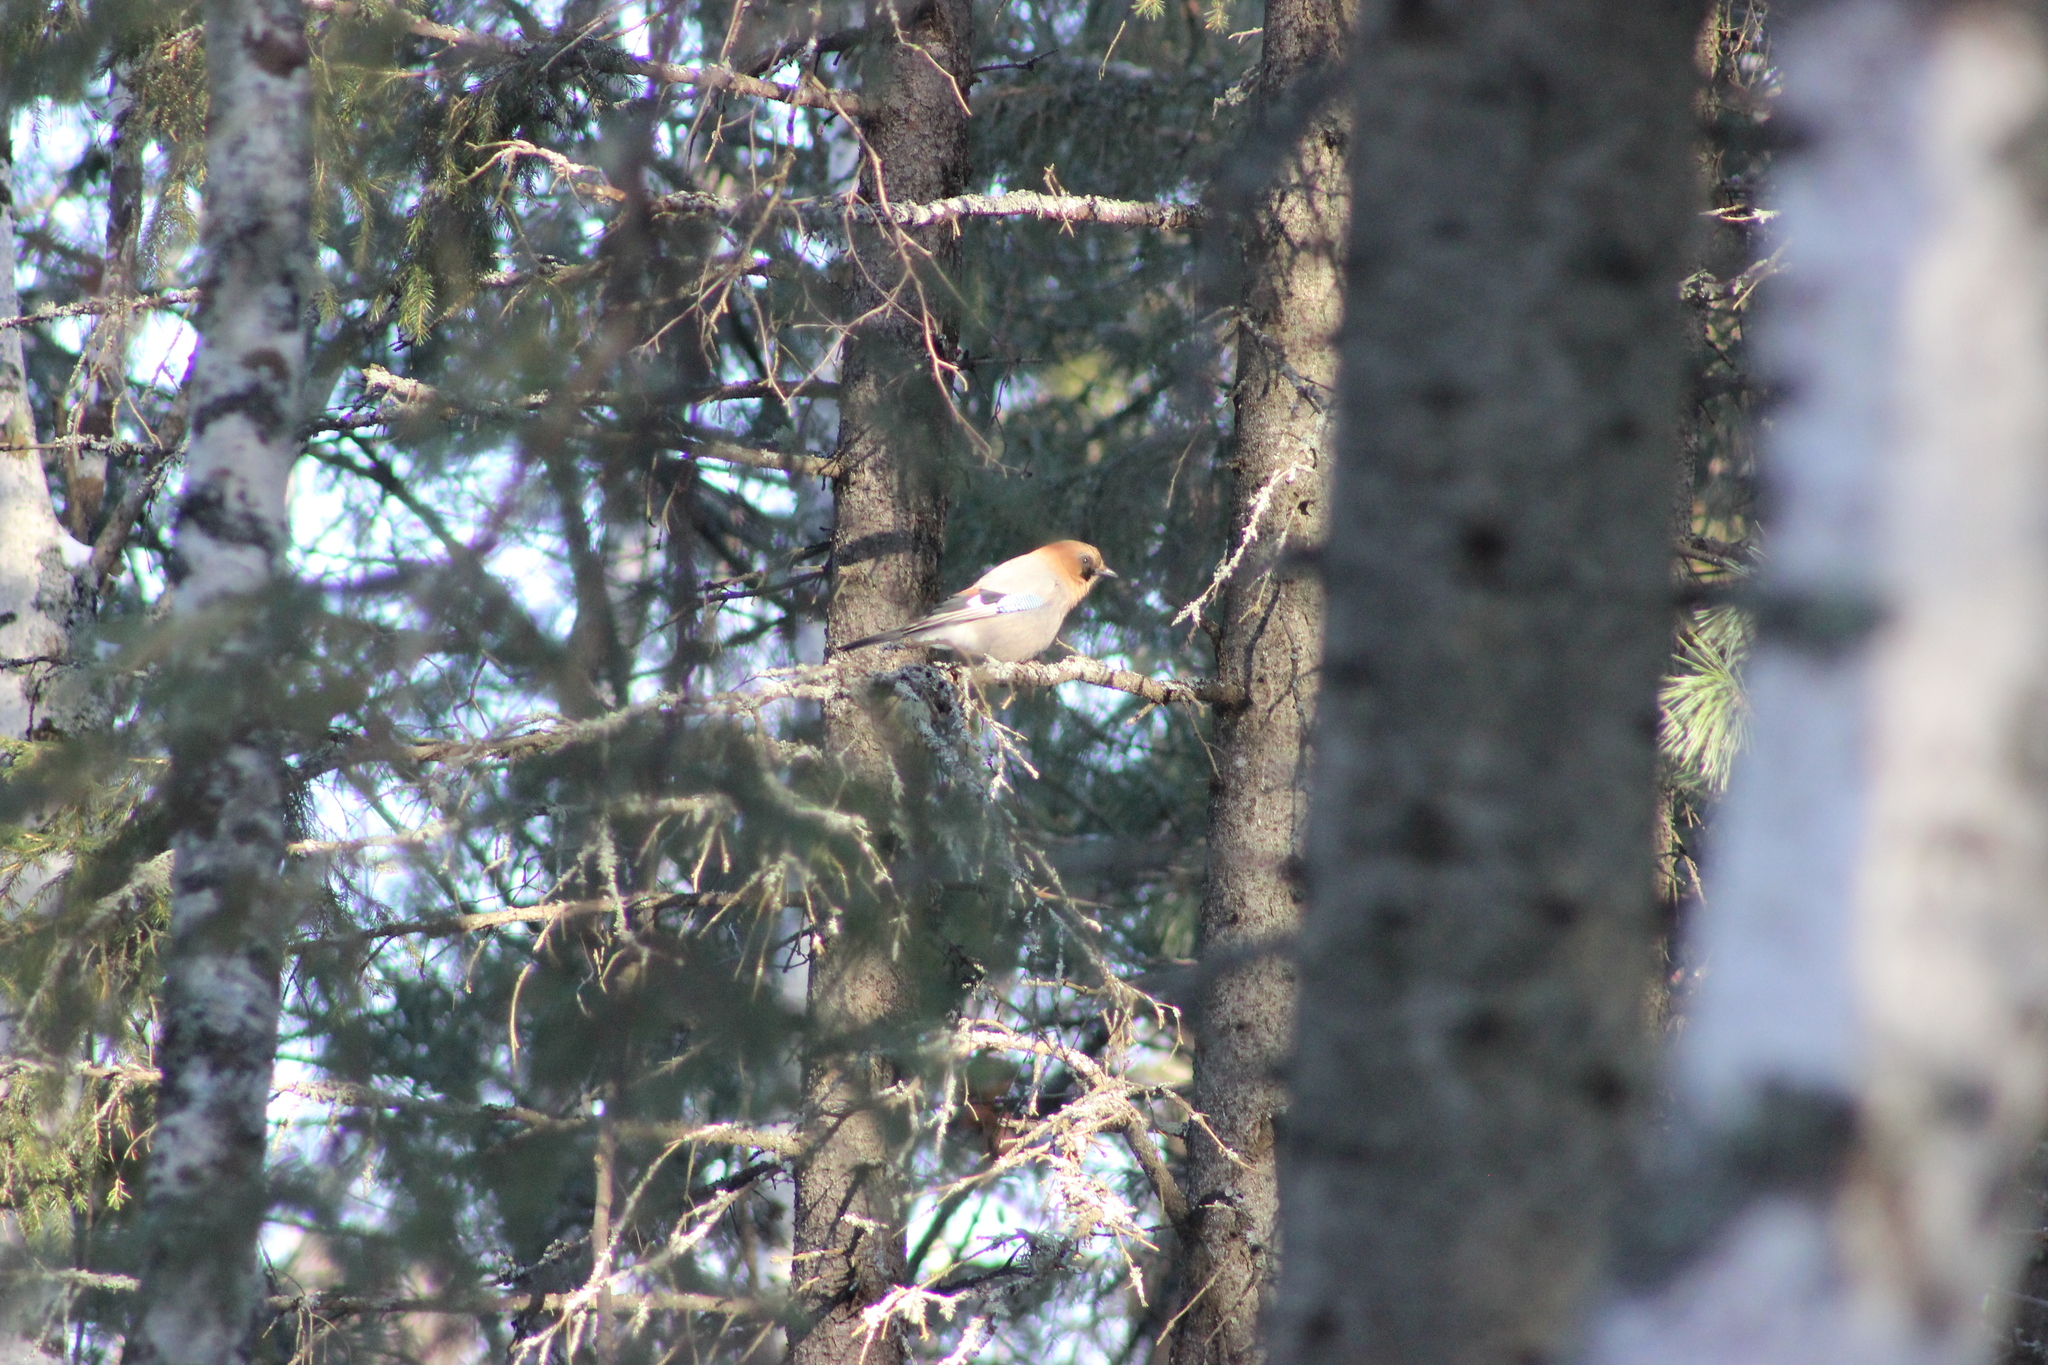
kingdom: Animalia
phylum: Chordata
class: Aves
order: Passeriformes
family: Corvidae
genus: Garrulus
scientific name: Garrulus glandarius
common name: Eurasian jay
